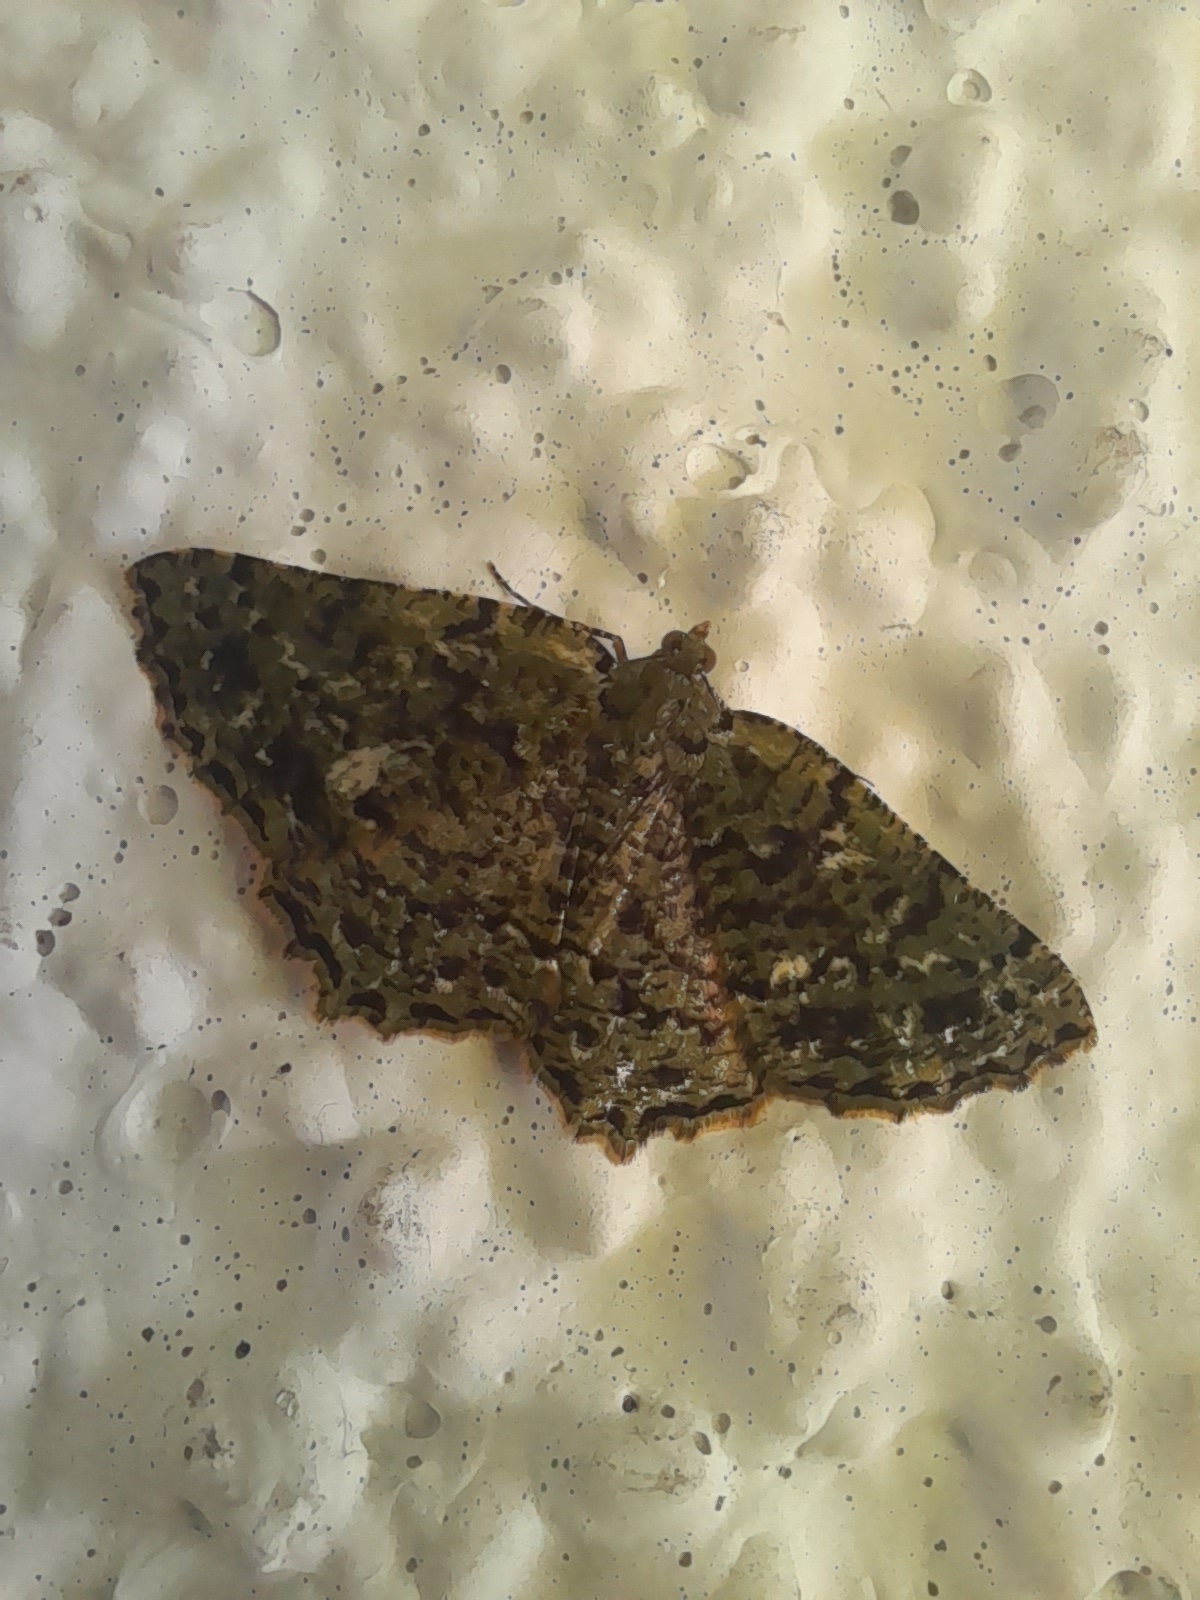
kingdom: Animalia
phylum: Arthropoda
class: Insecta
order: Lepidoptera
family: Geometridae
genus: Odontothera
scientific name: Odontothera virescens
